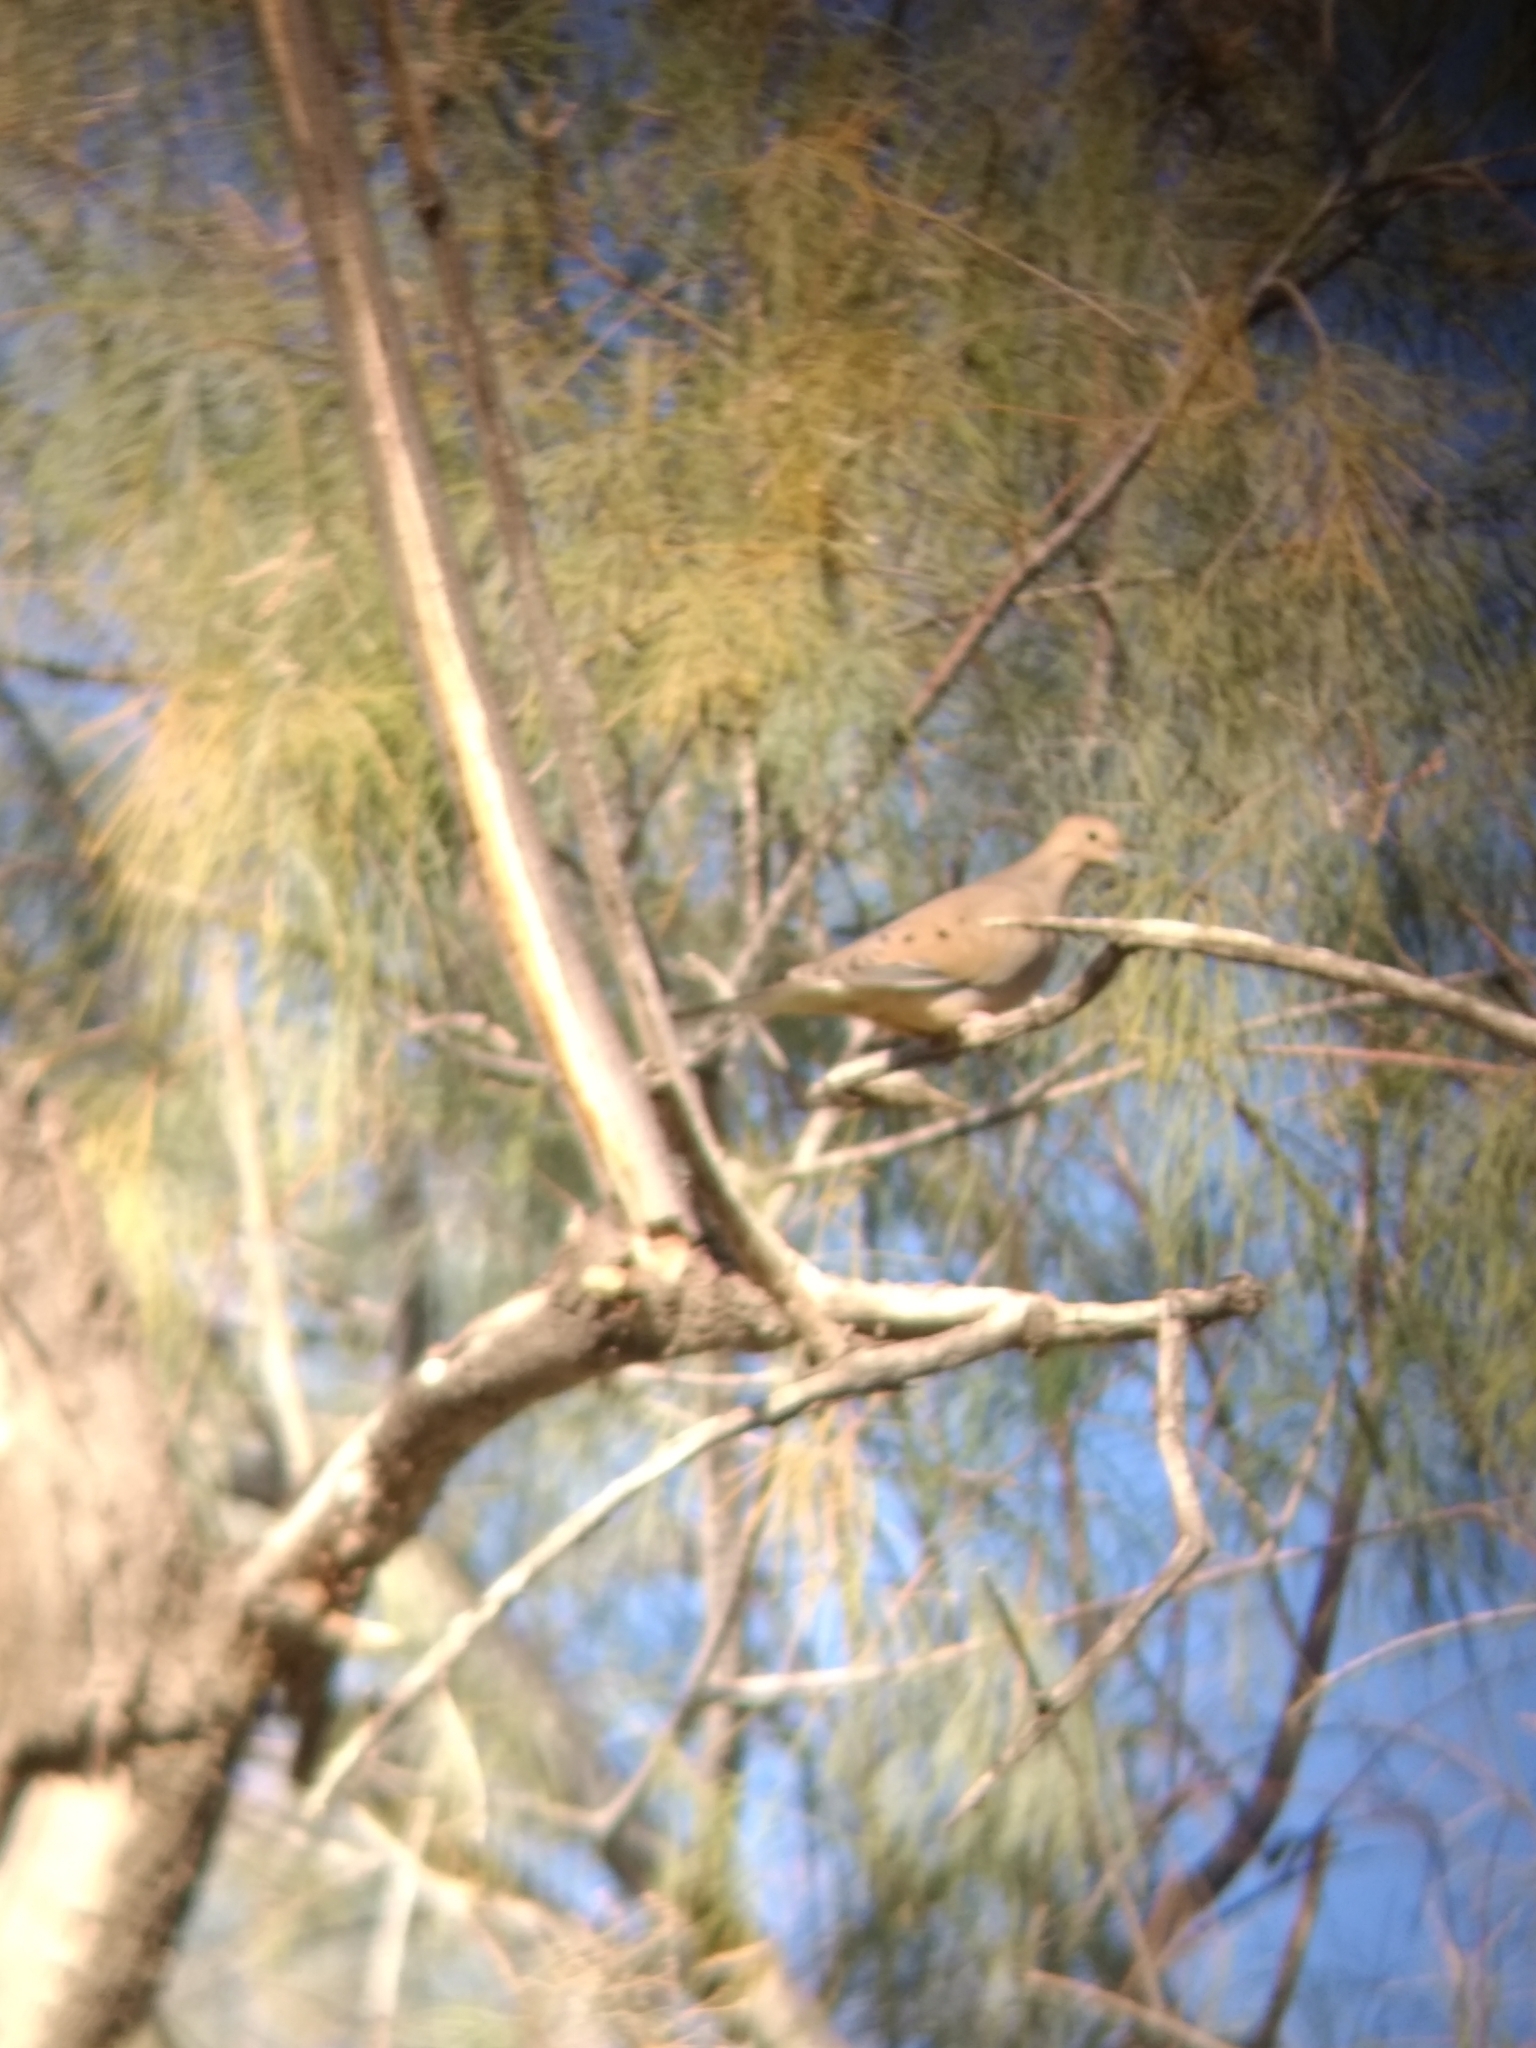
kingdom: Animalia
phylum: Chordata
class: Aves
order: Columbiformes
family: Columbidae
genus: Zenaida
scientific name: Zenaida macroura
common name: Mourning dove
